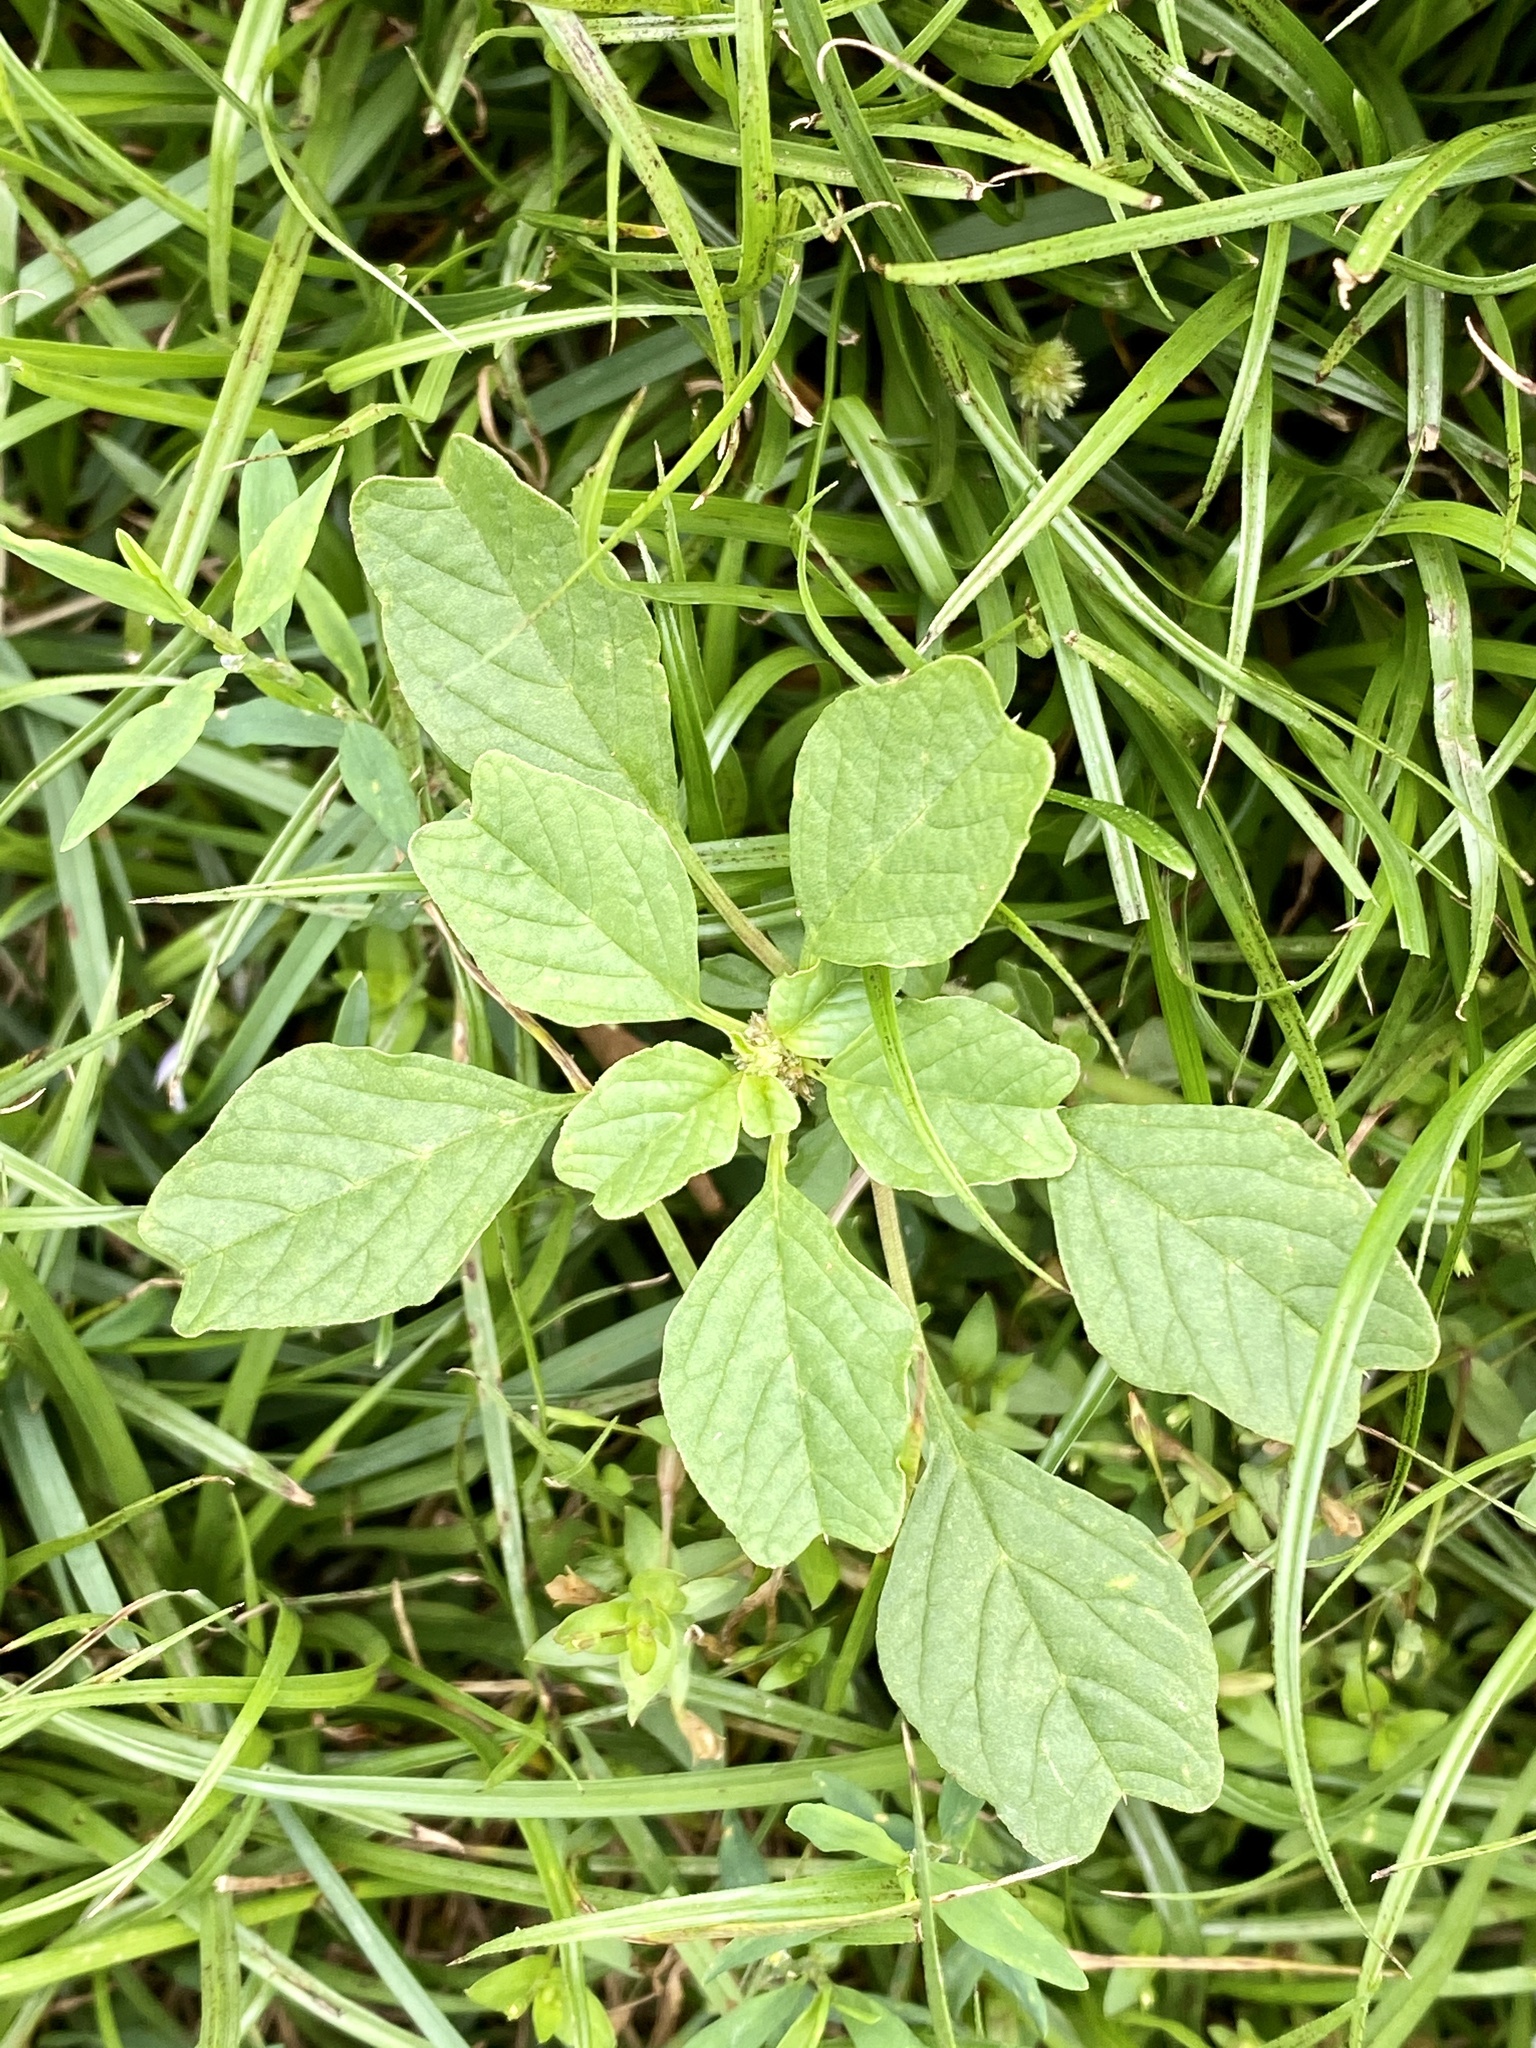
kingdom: Plantae
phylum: Tracheophyta
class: Magnoliopsida
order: Caryophyllales
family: Amaranthaceae
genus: Amaranthus
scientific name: Amaranthus blitum
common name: Purple amaranth
